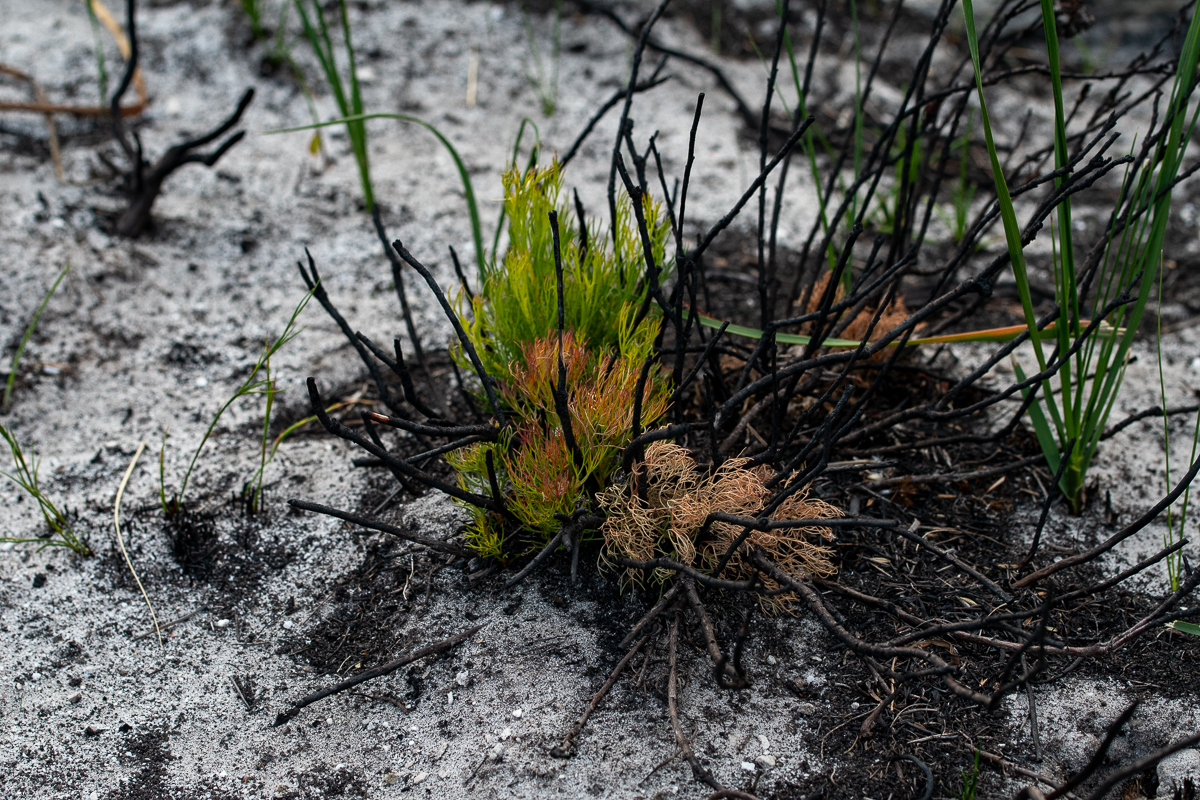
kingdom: Plantae
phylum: Tracheophyta
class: Magnoliopsida
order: Proteales
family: Proteaceae
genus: Serruria
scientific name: Serruria rubricaulis
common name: Red-stem spiderhead
